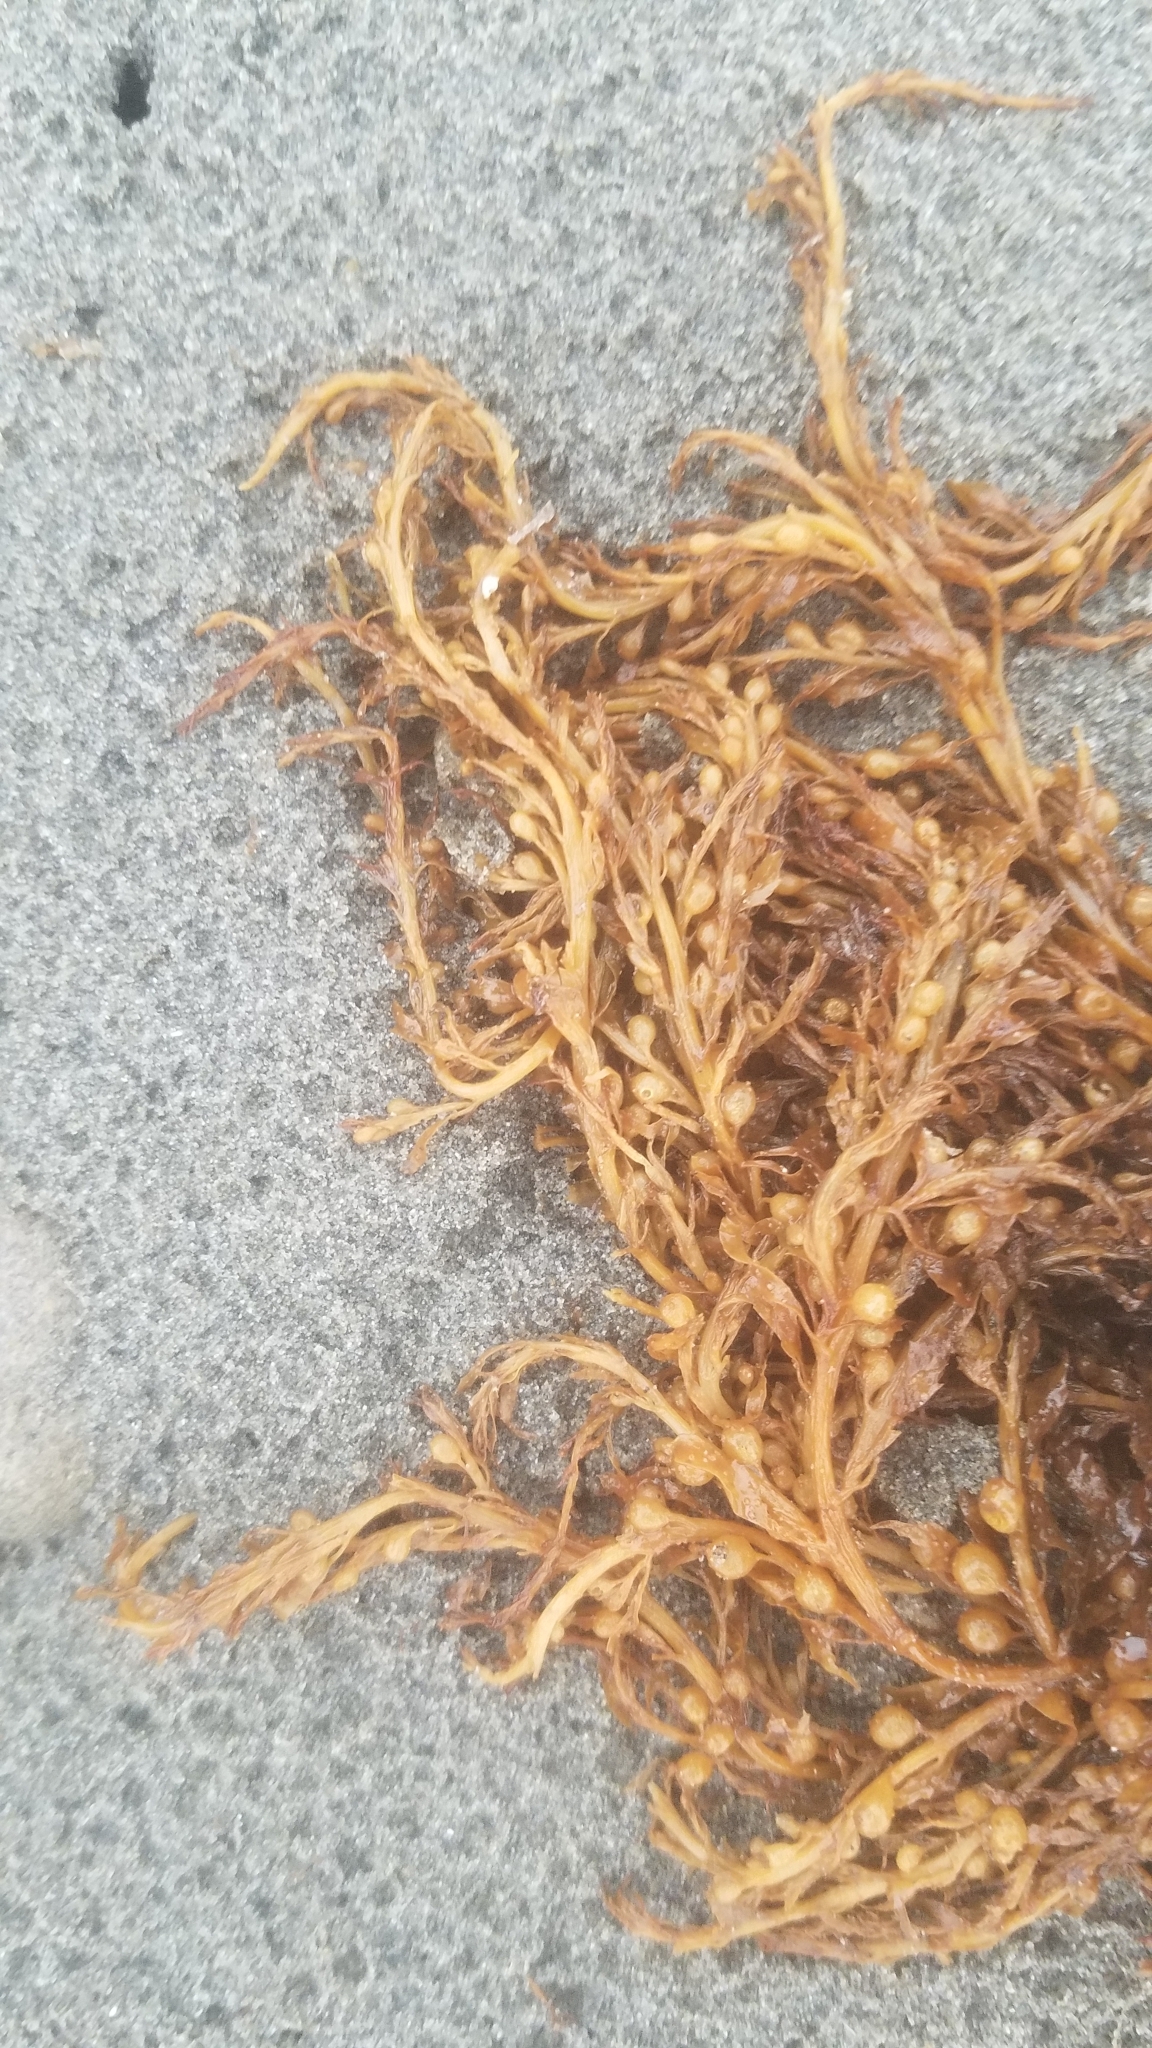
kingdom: Chromista
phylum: Ochrophyta
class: Phaeophyceae
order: Fucales
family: Sargassaceae
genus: Sargassum
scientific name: Sargassum muticum
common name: Japweed
